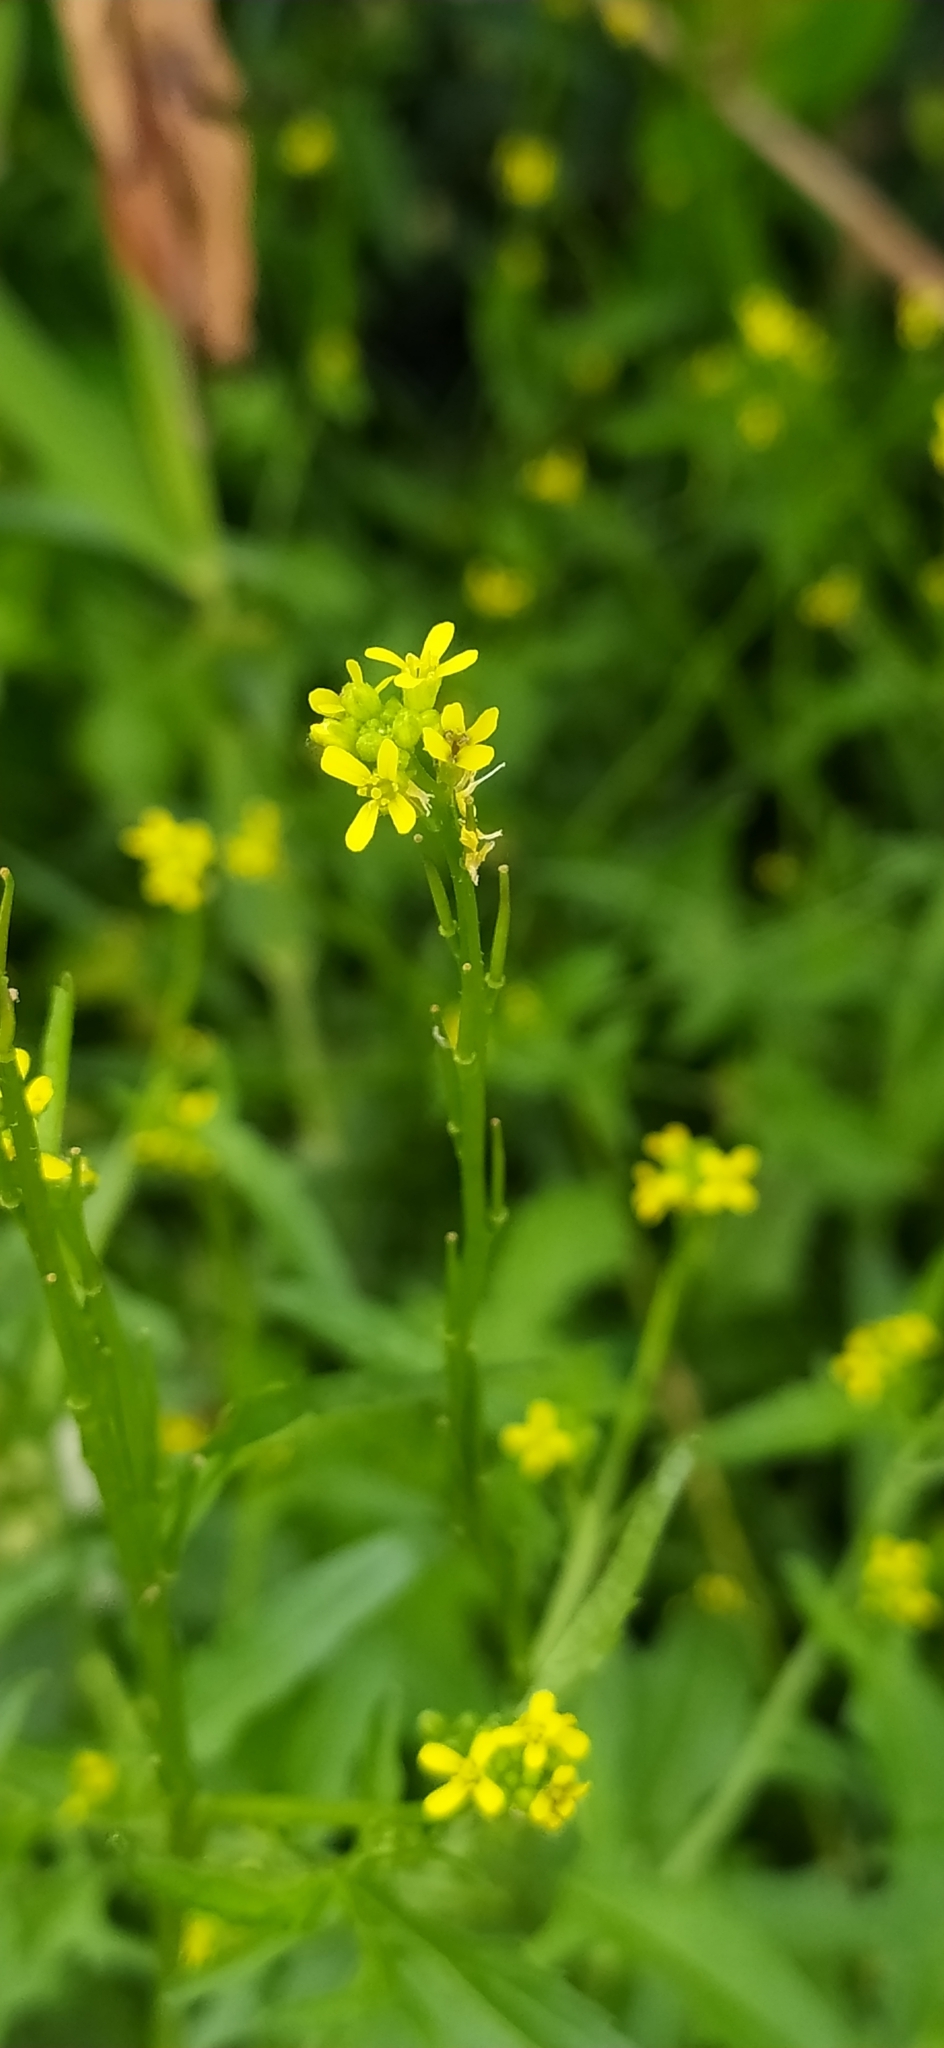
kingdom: Plantae
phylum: Tracheophyta
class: Magnoliopsida
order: Brassicales
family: Brassicaceae
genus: Sisymbrium
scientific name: Sisymbrium officinale
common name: Hedge mustard
